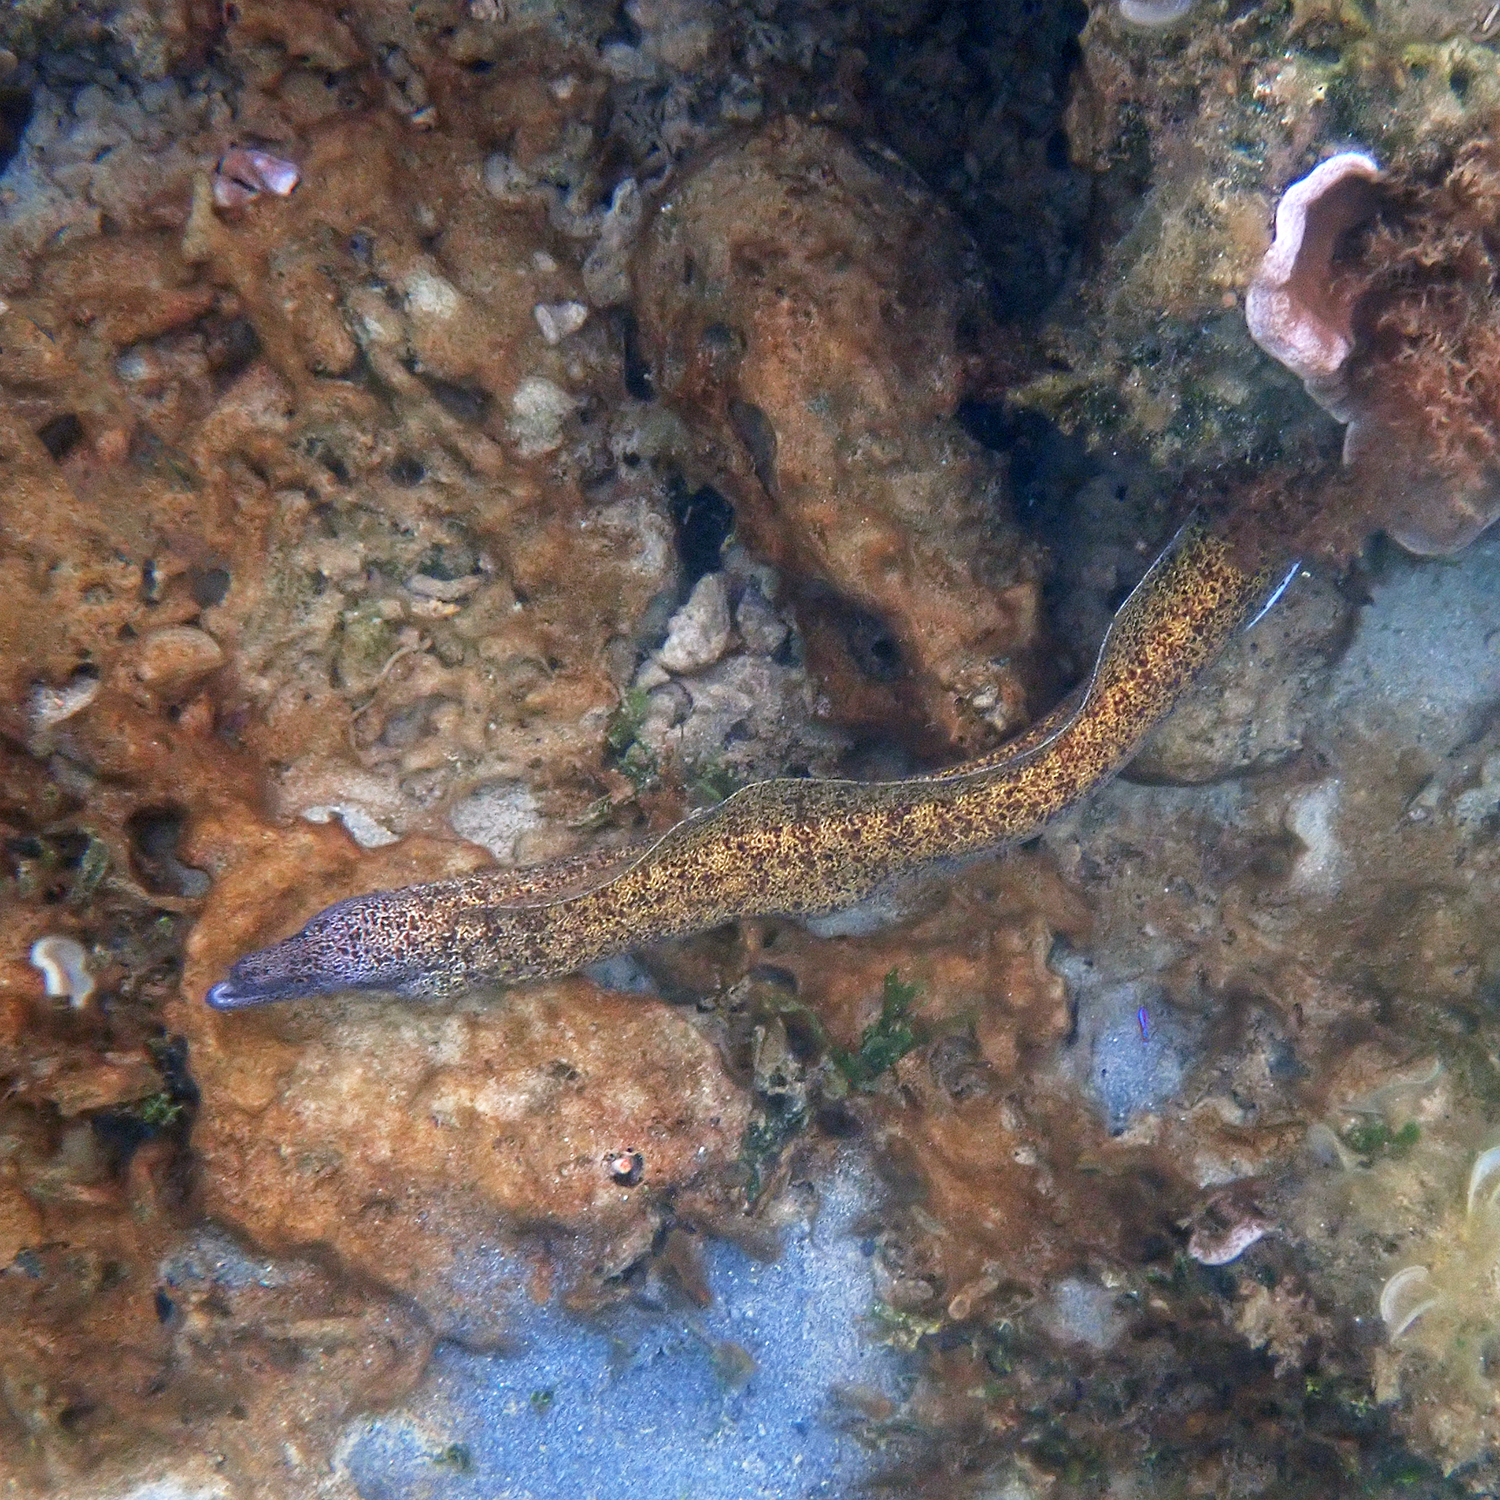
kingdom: Animalia
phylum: Chordata
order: Anguilliformes
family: Muraenidae
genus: Gymnothorax
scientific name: Gymnothorax annasona
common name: Lord howe island moray
